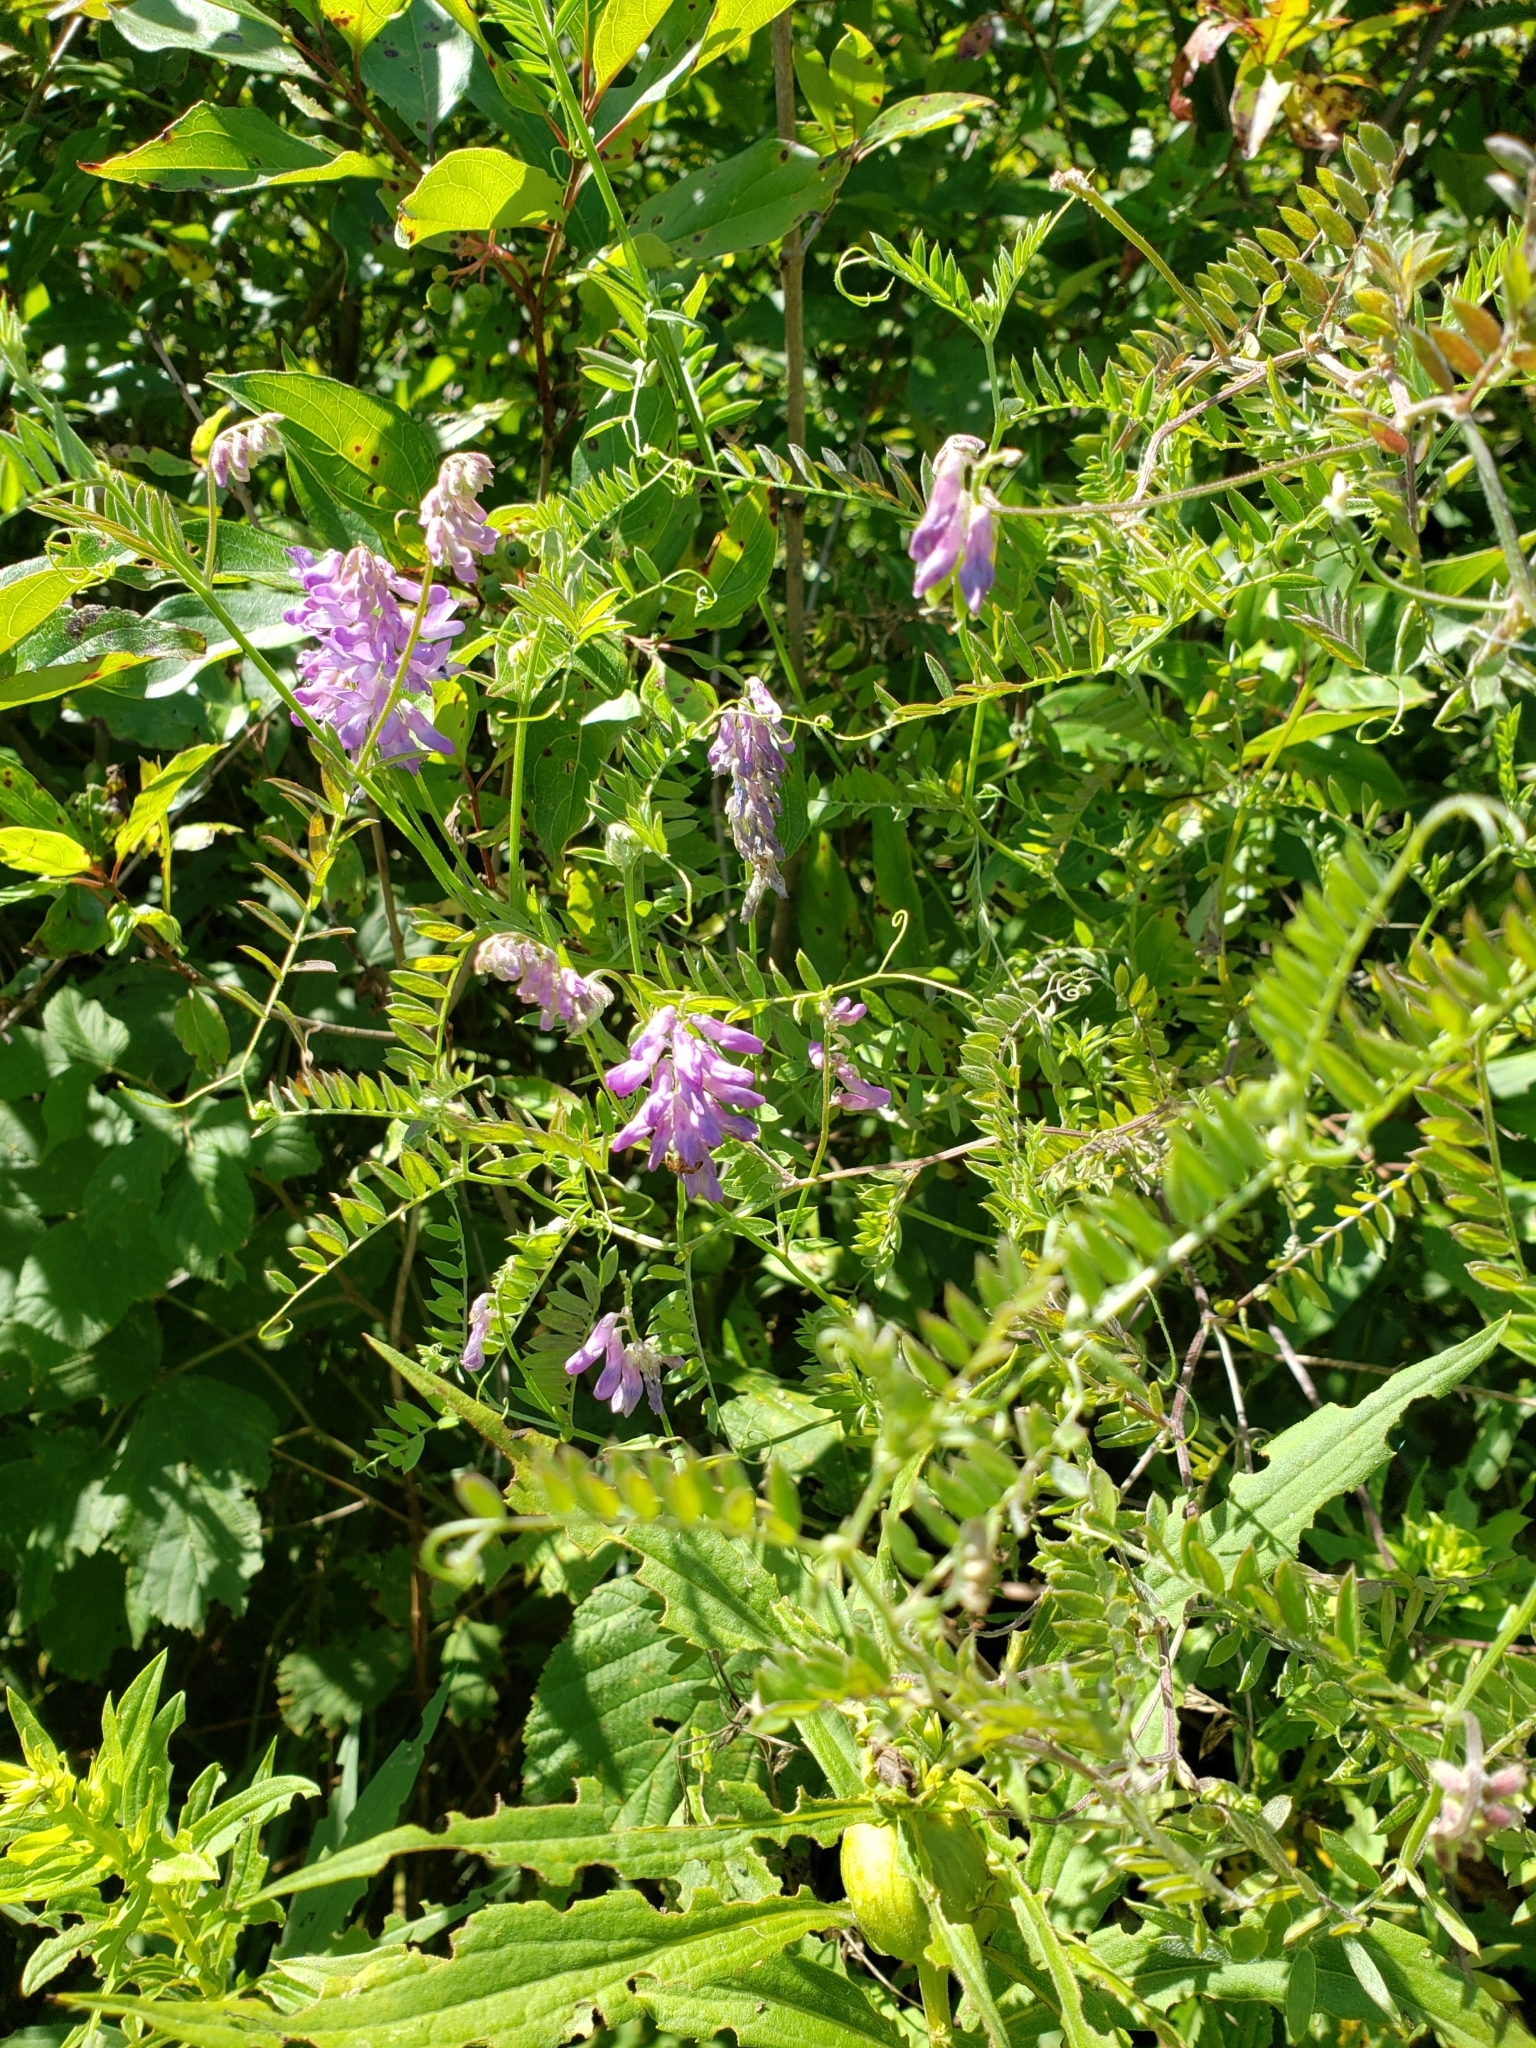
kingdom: Plantae
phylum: Tracheophyta
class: Magnoliopsida
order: Fabales
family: Fabaceae
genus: Vicia
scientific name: Vicia cracca
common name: Bird vetch
